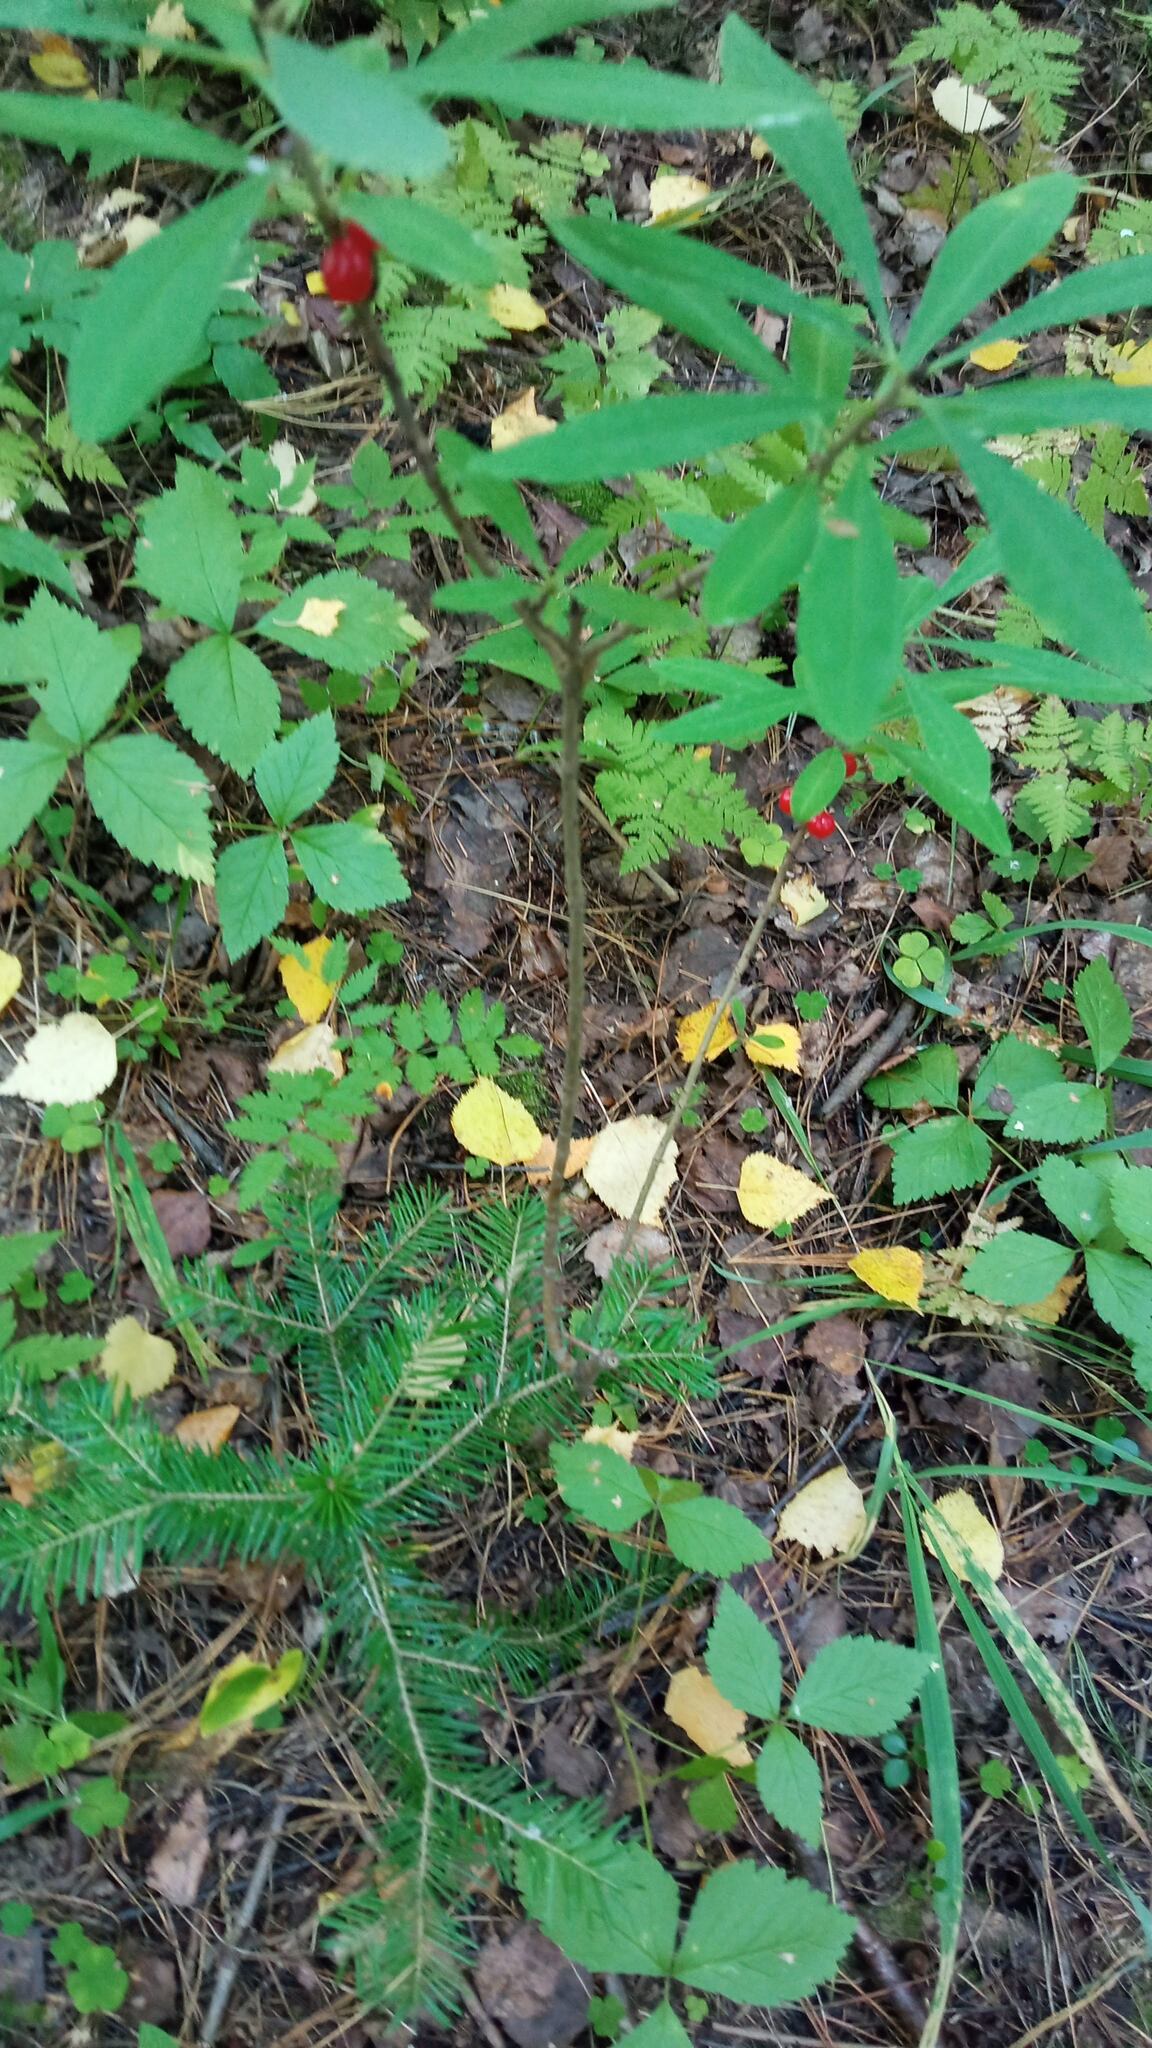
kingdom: Plantae
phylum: Tracheophyta
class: Magnoliopsida
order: Malvales
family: Thymelaeaceae
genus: Daphne
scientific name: Daphne mezereum
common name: Mezereon
